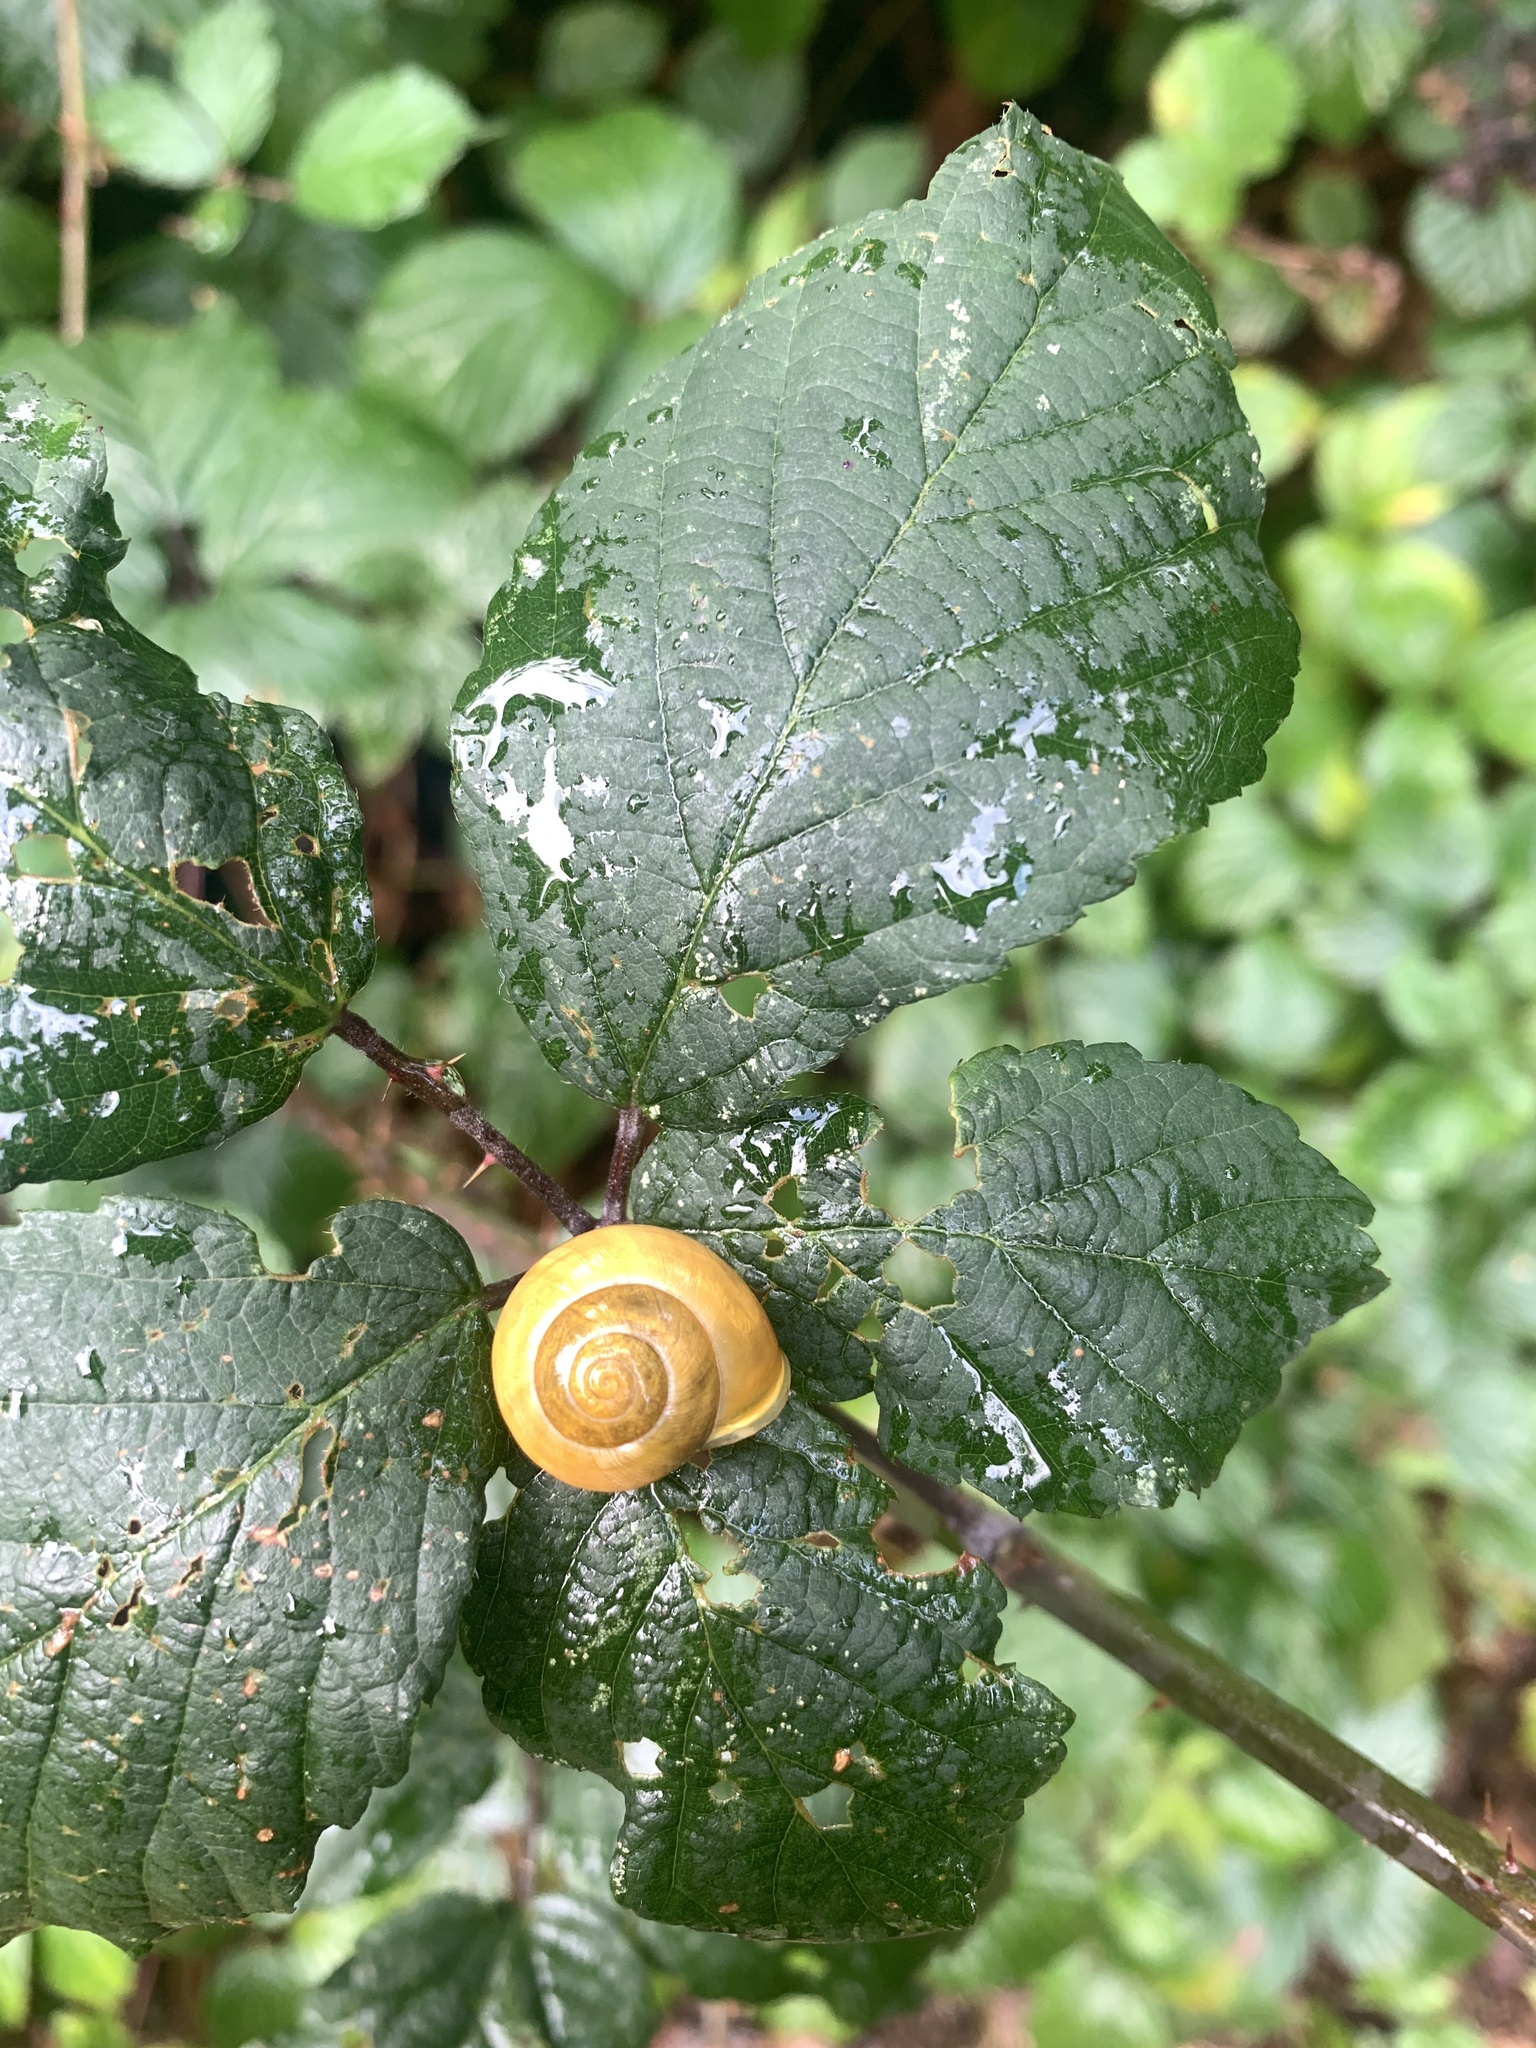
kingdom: Animalia
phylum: Mollusca
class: Gastropoda
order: Stylommatophora
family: Helicidae
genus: Cepaea
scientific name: Cepaea hortensis
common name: White-lip gardensnail
